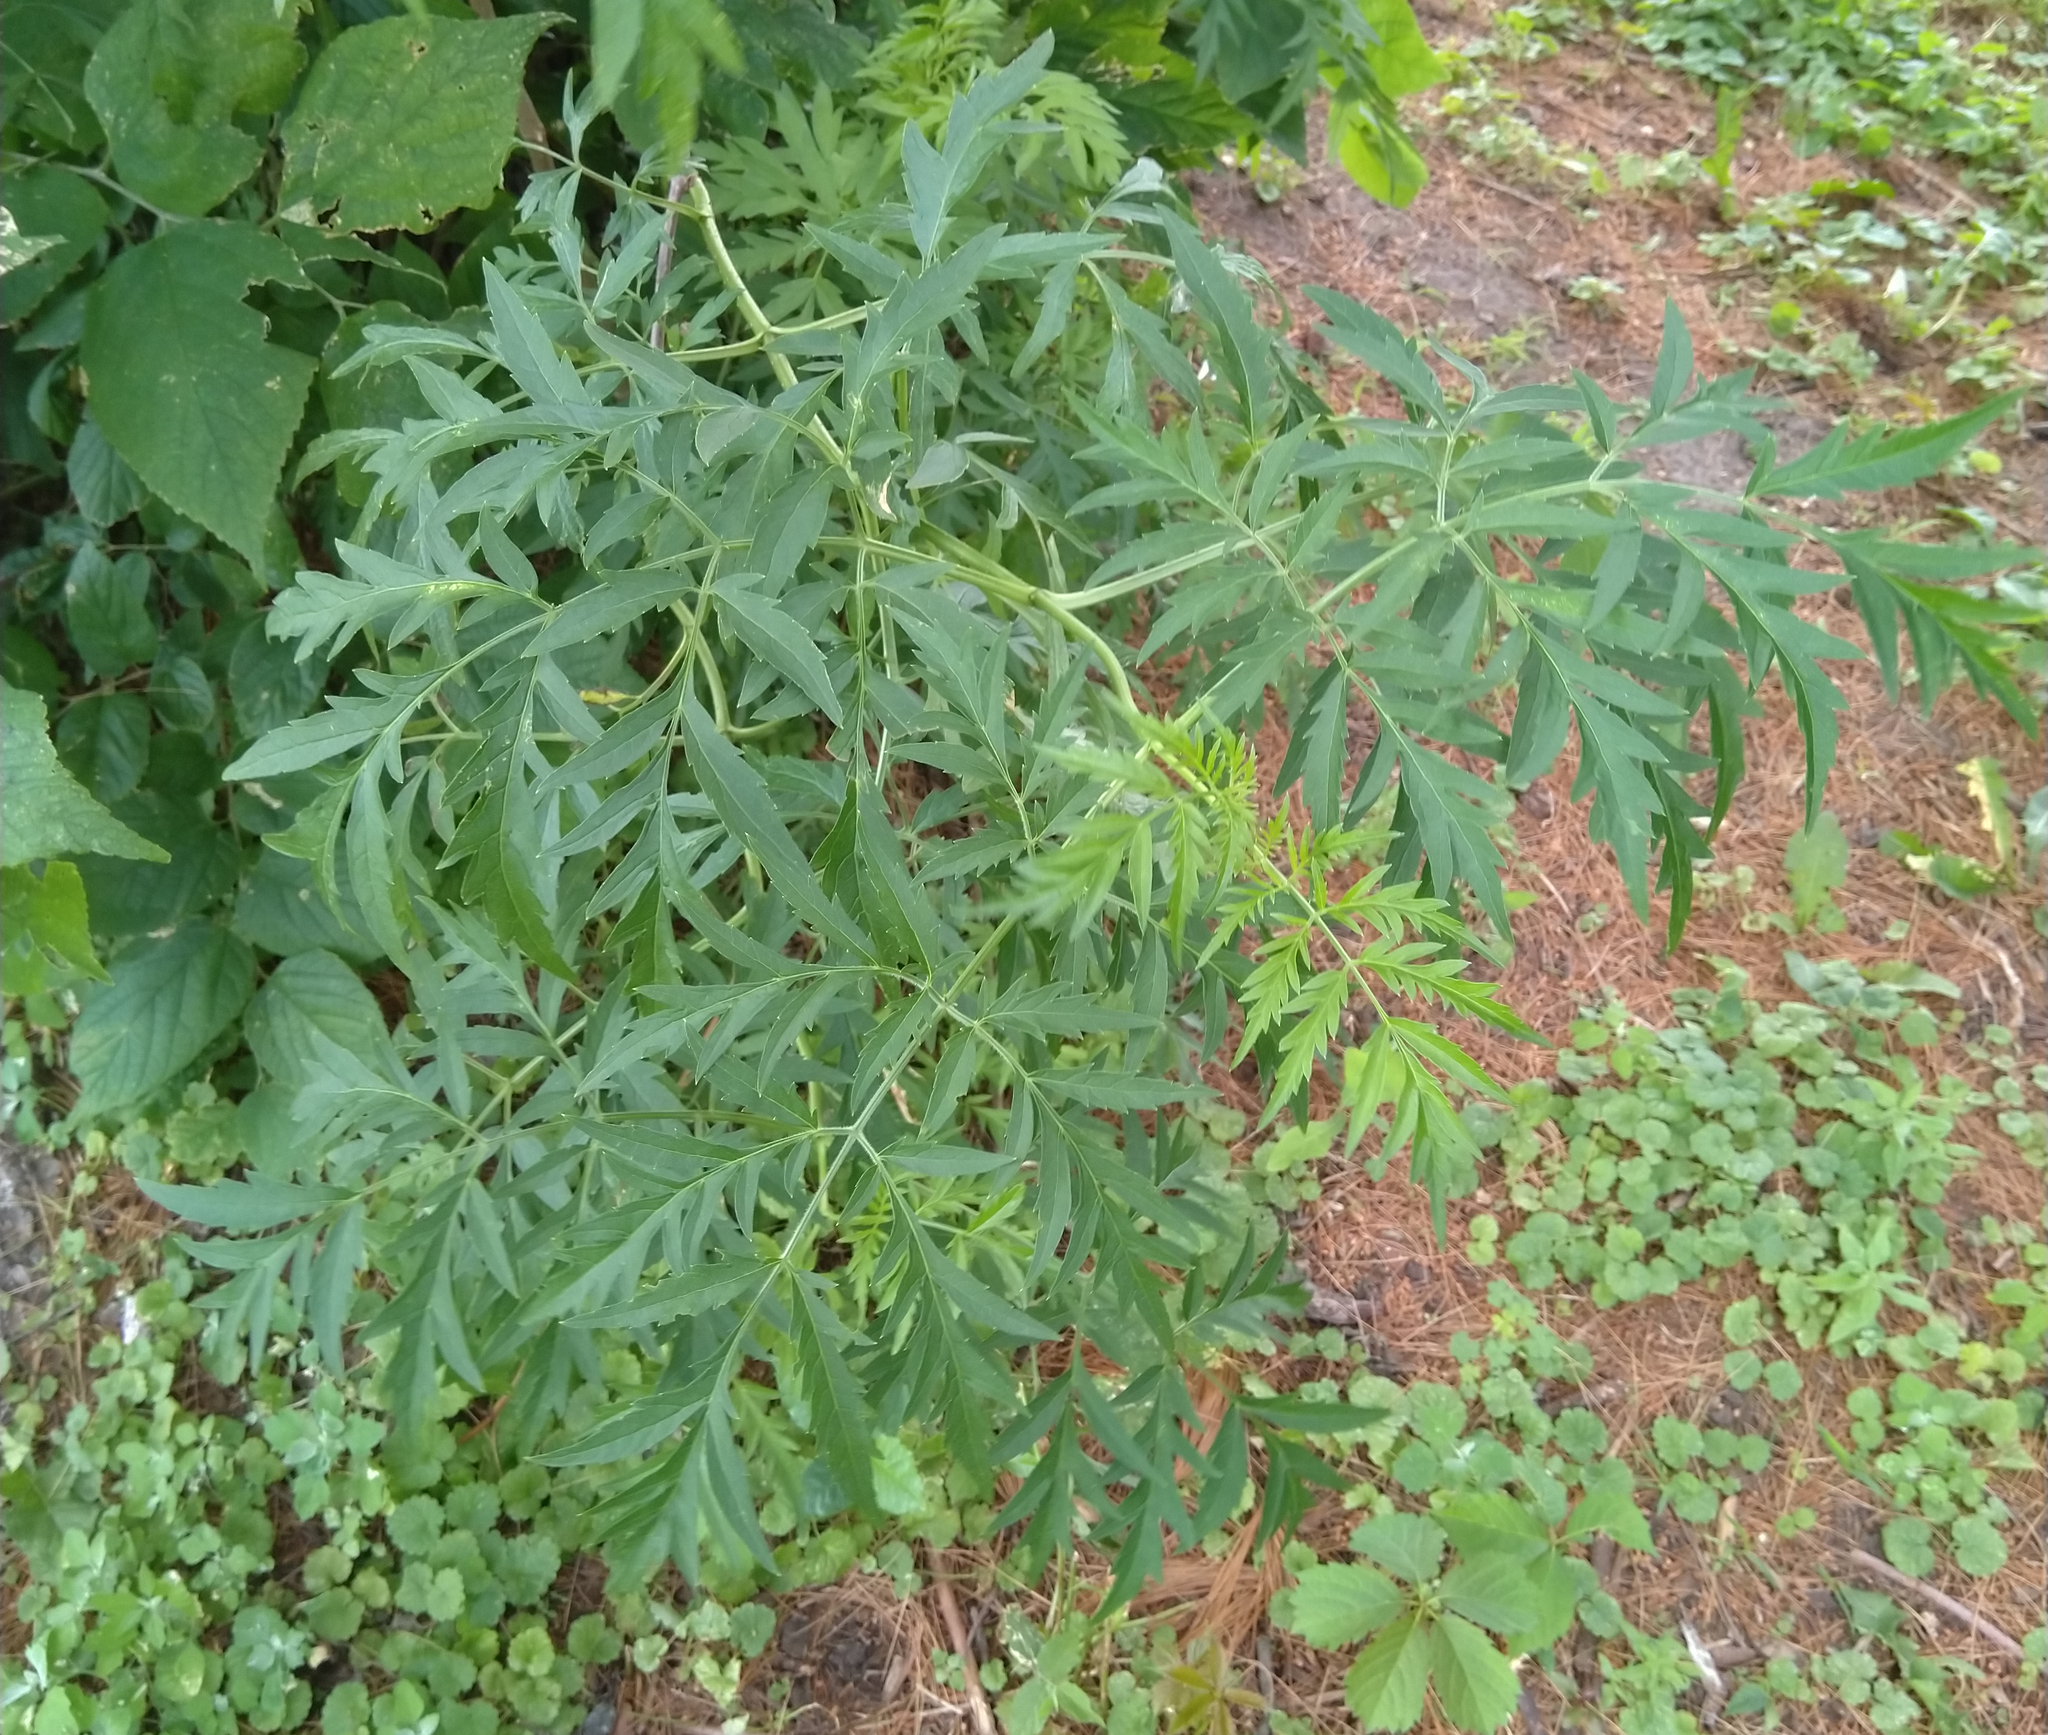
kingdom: Plantae
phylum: Tracheophyta
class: Magnoliopsida
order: Asterales
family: Asteraceae
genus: Ambrosia
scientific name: Ambrosia artemisiifolia
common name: Annual ragweed
